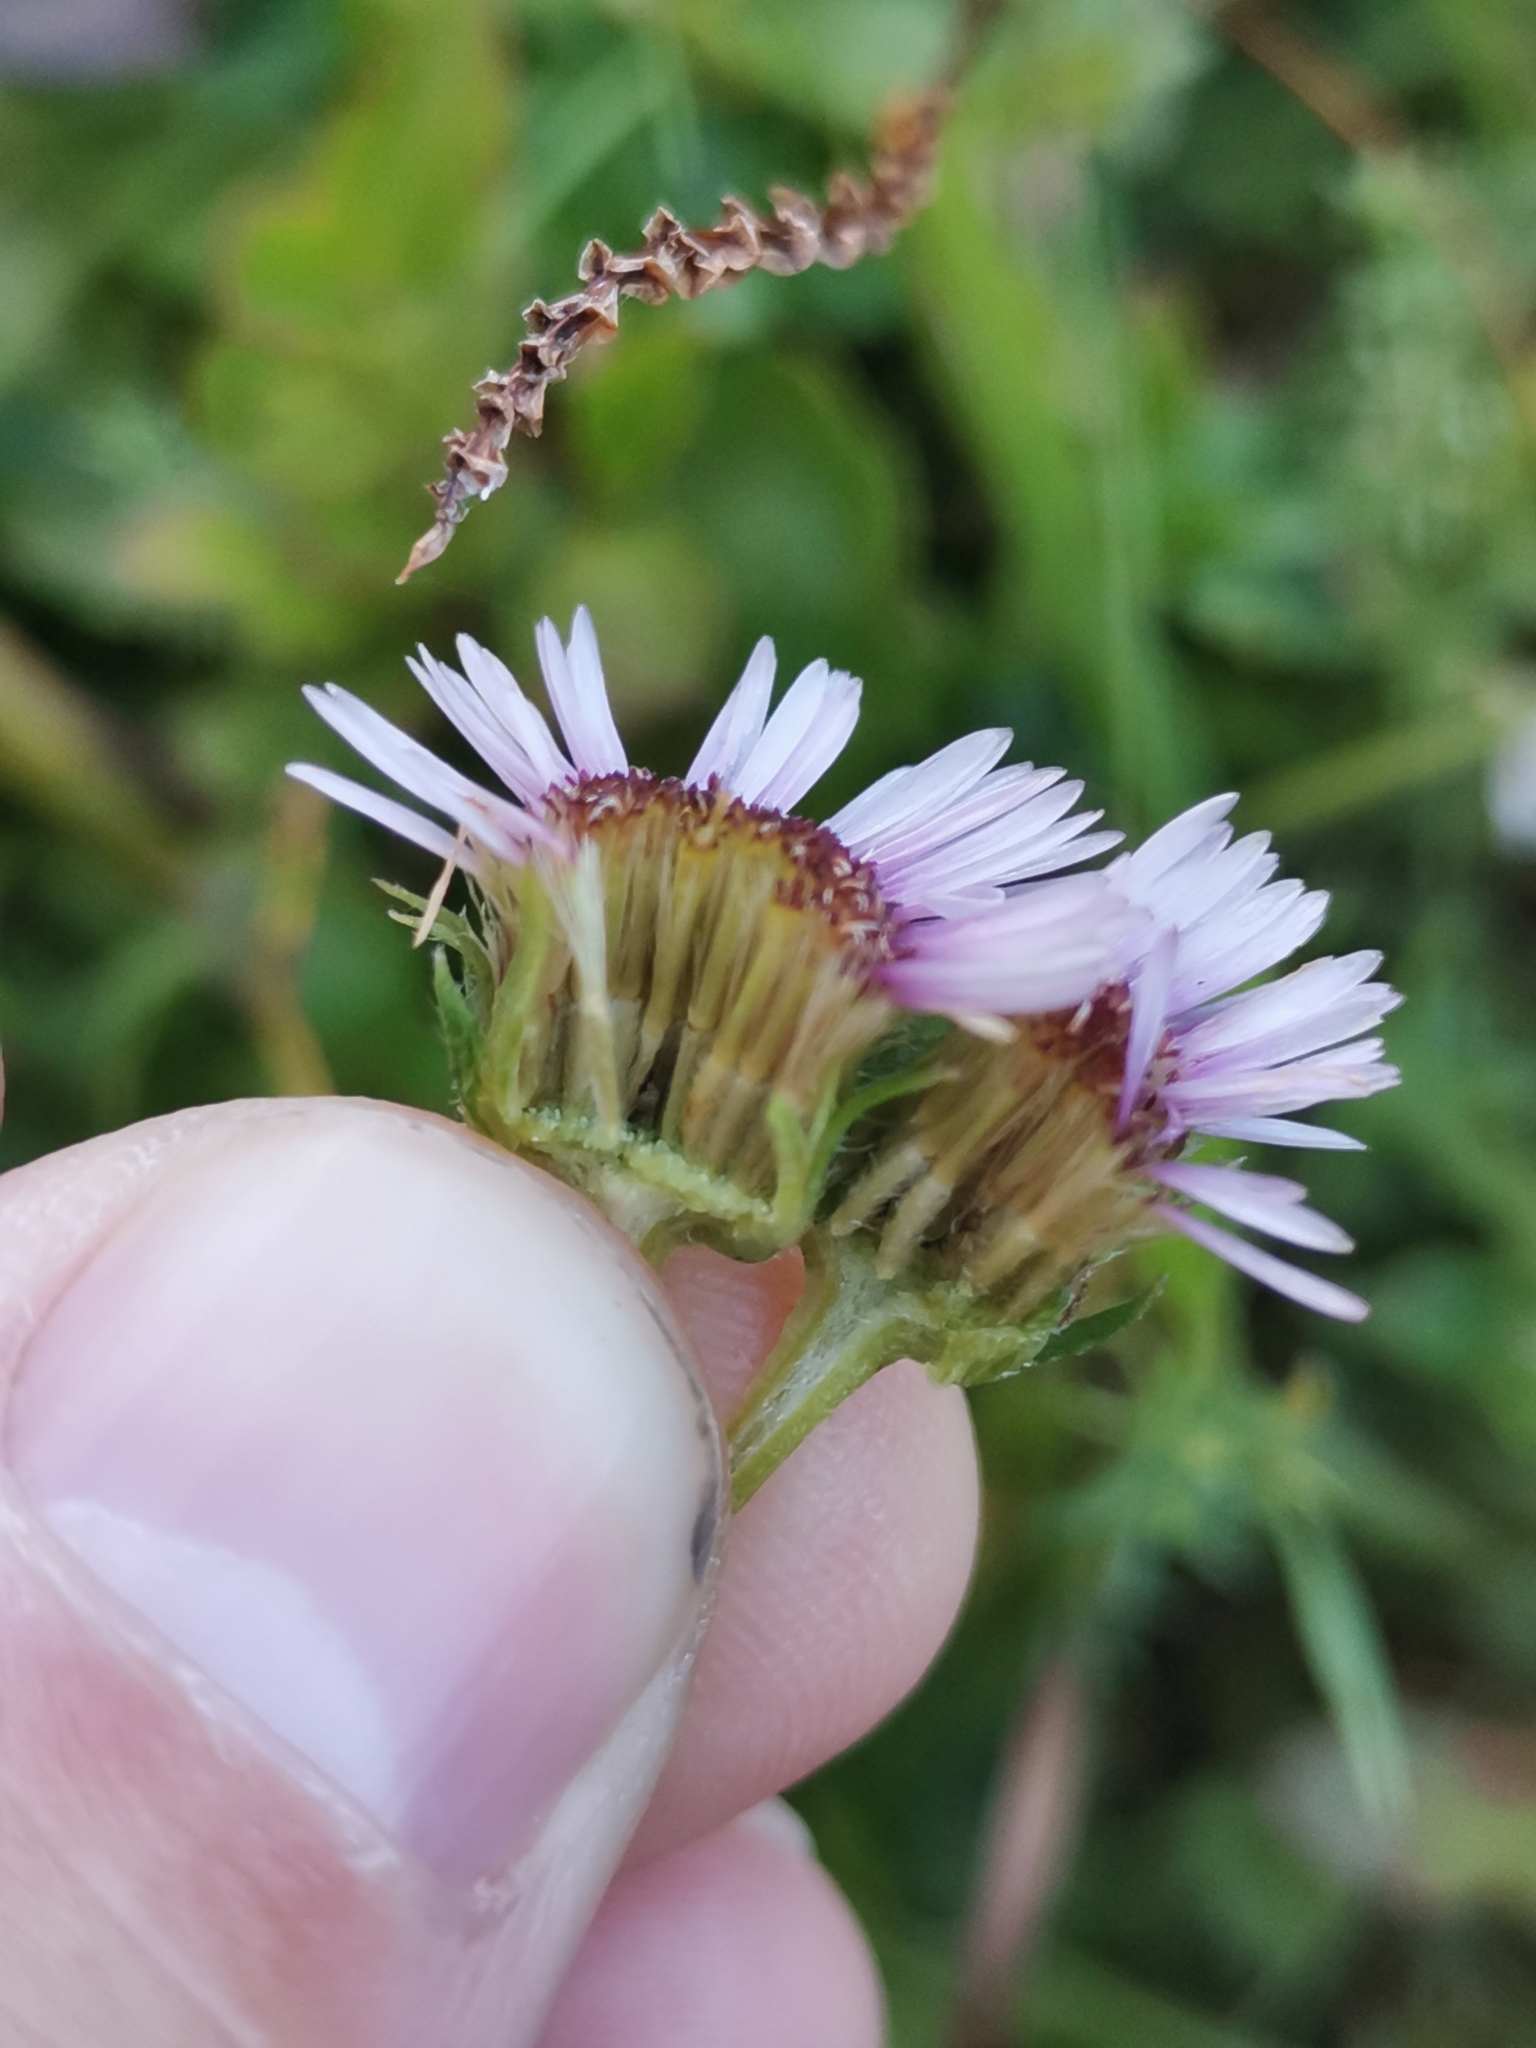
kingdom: Plantae
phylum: Tracheophyta
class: Magnoliopsida
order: Asterales
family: Asteraceae
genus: Erigeron
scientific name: Erigeron glabratus
